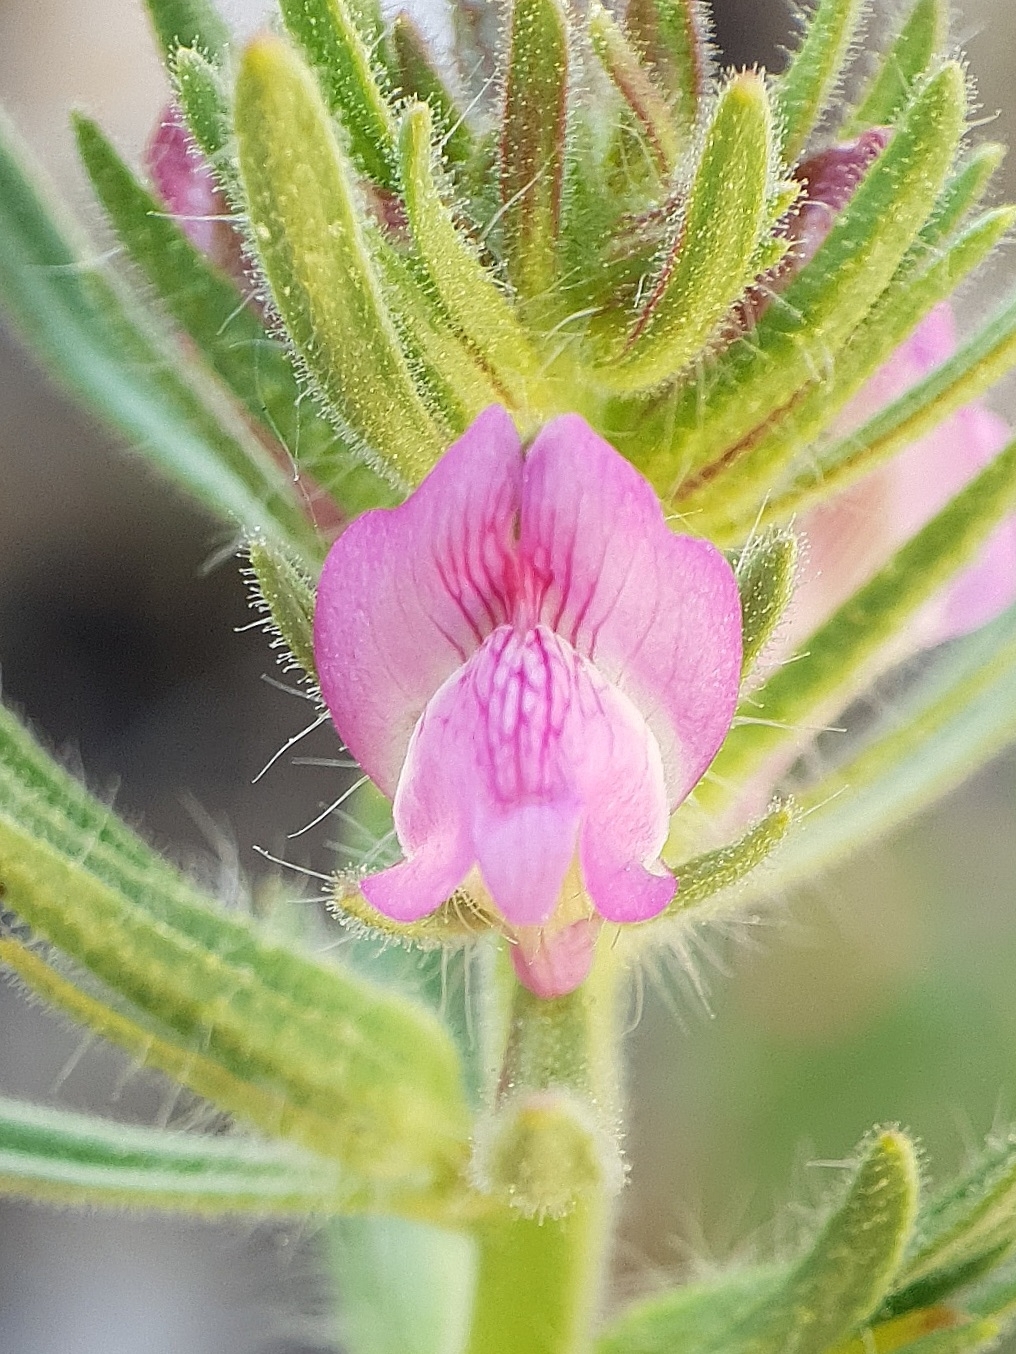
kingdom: Plantae
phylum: Tracheophyta
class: Magnoliopsida
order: Lamiales
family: Plantaginaceae
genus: Misopates
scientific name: Misopates orontium
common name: Weasel's-snout
